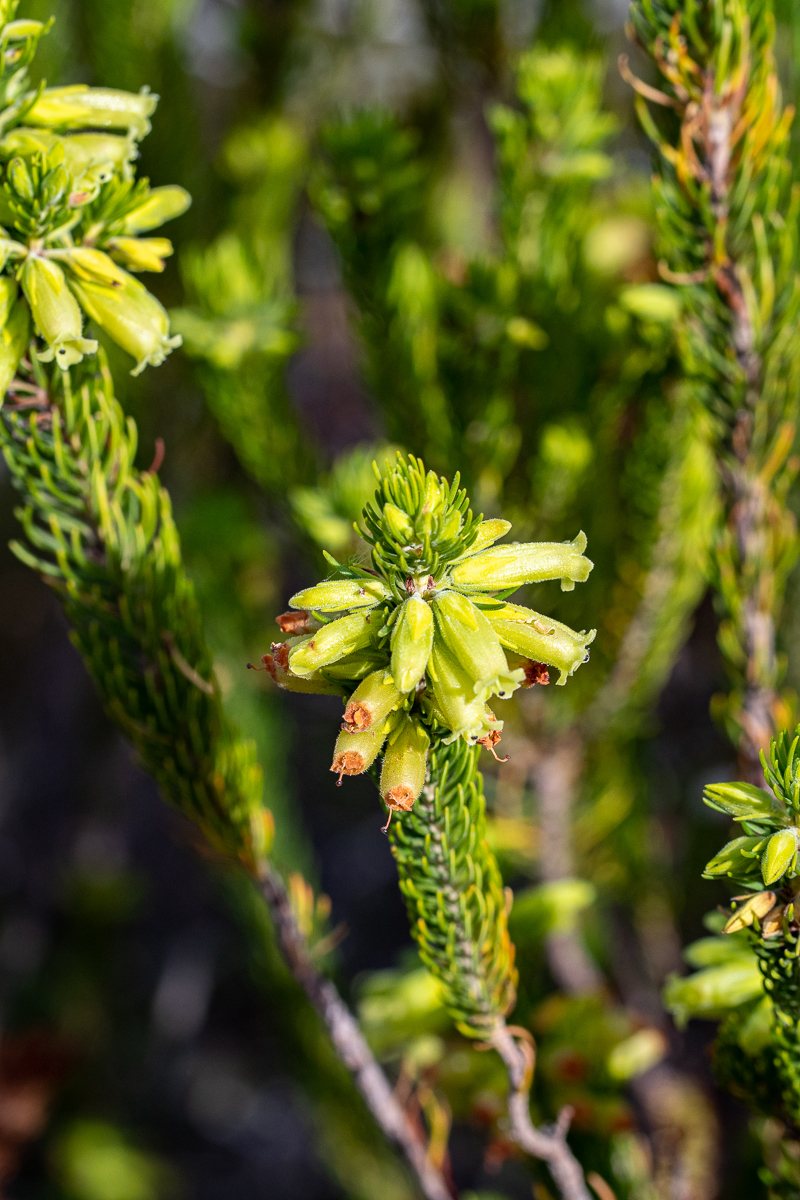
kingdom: Plantae
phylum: Tracheophyta
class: Magnoliopsida
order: Ericales
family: Ericaceae
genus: Erica
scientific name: Erica viscaria
